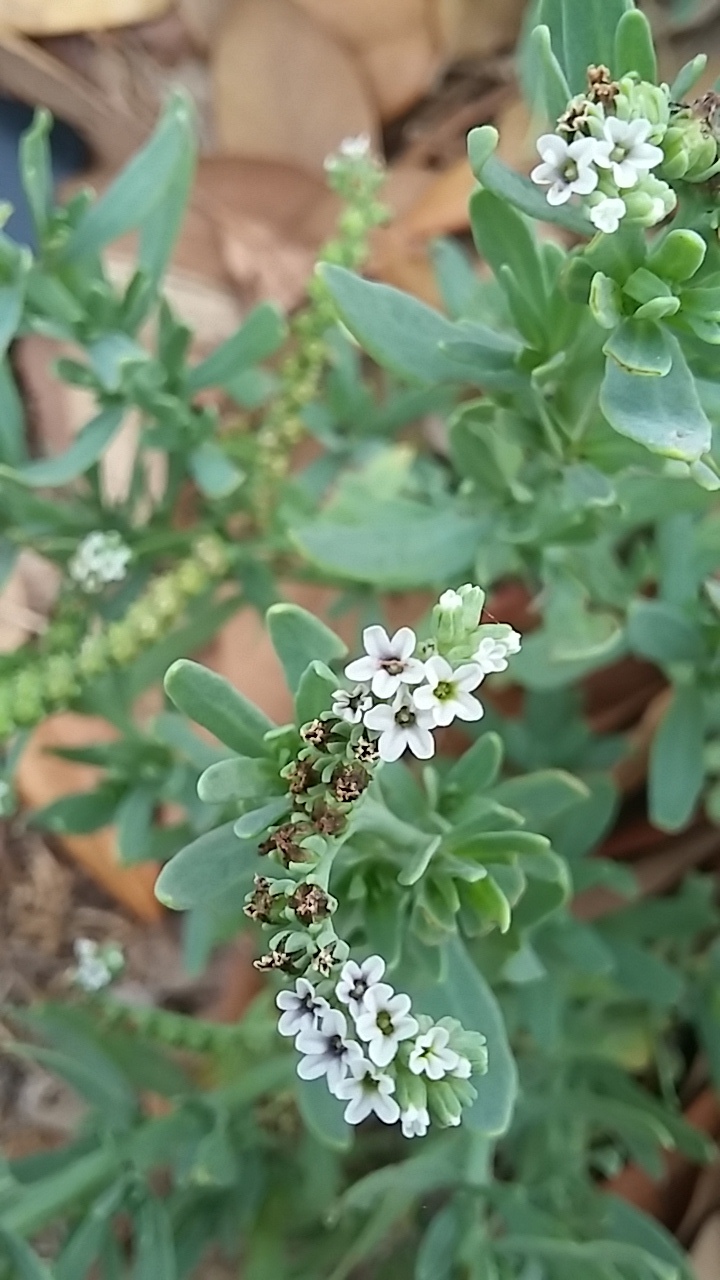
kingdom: Plantae
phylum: Tracheophyta
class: Magnoliopsida
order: Boraginales
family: Heliotropiaceae
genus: Heliotropium
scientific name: Heliotropium curassavicum
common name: Seaside heliotrope
